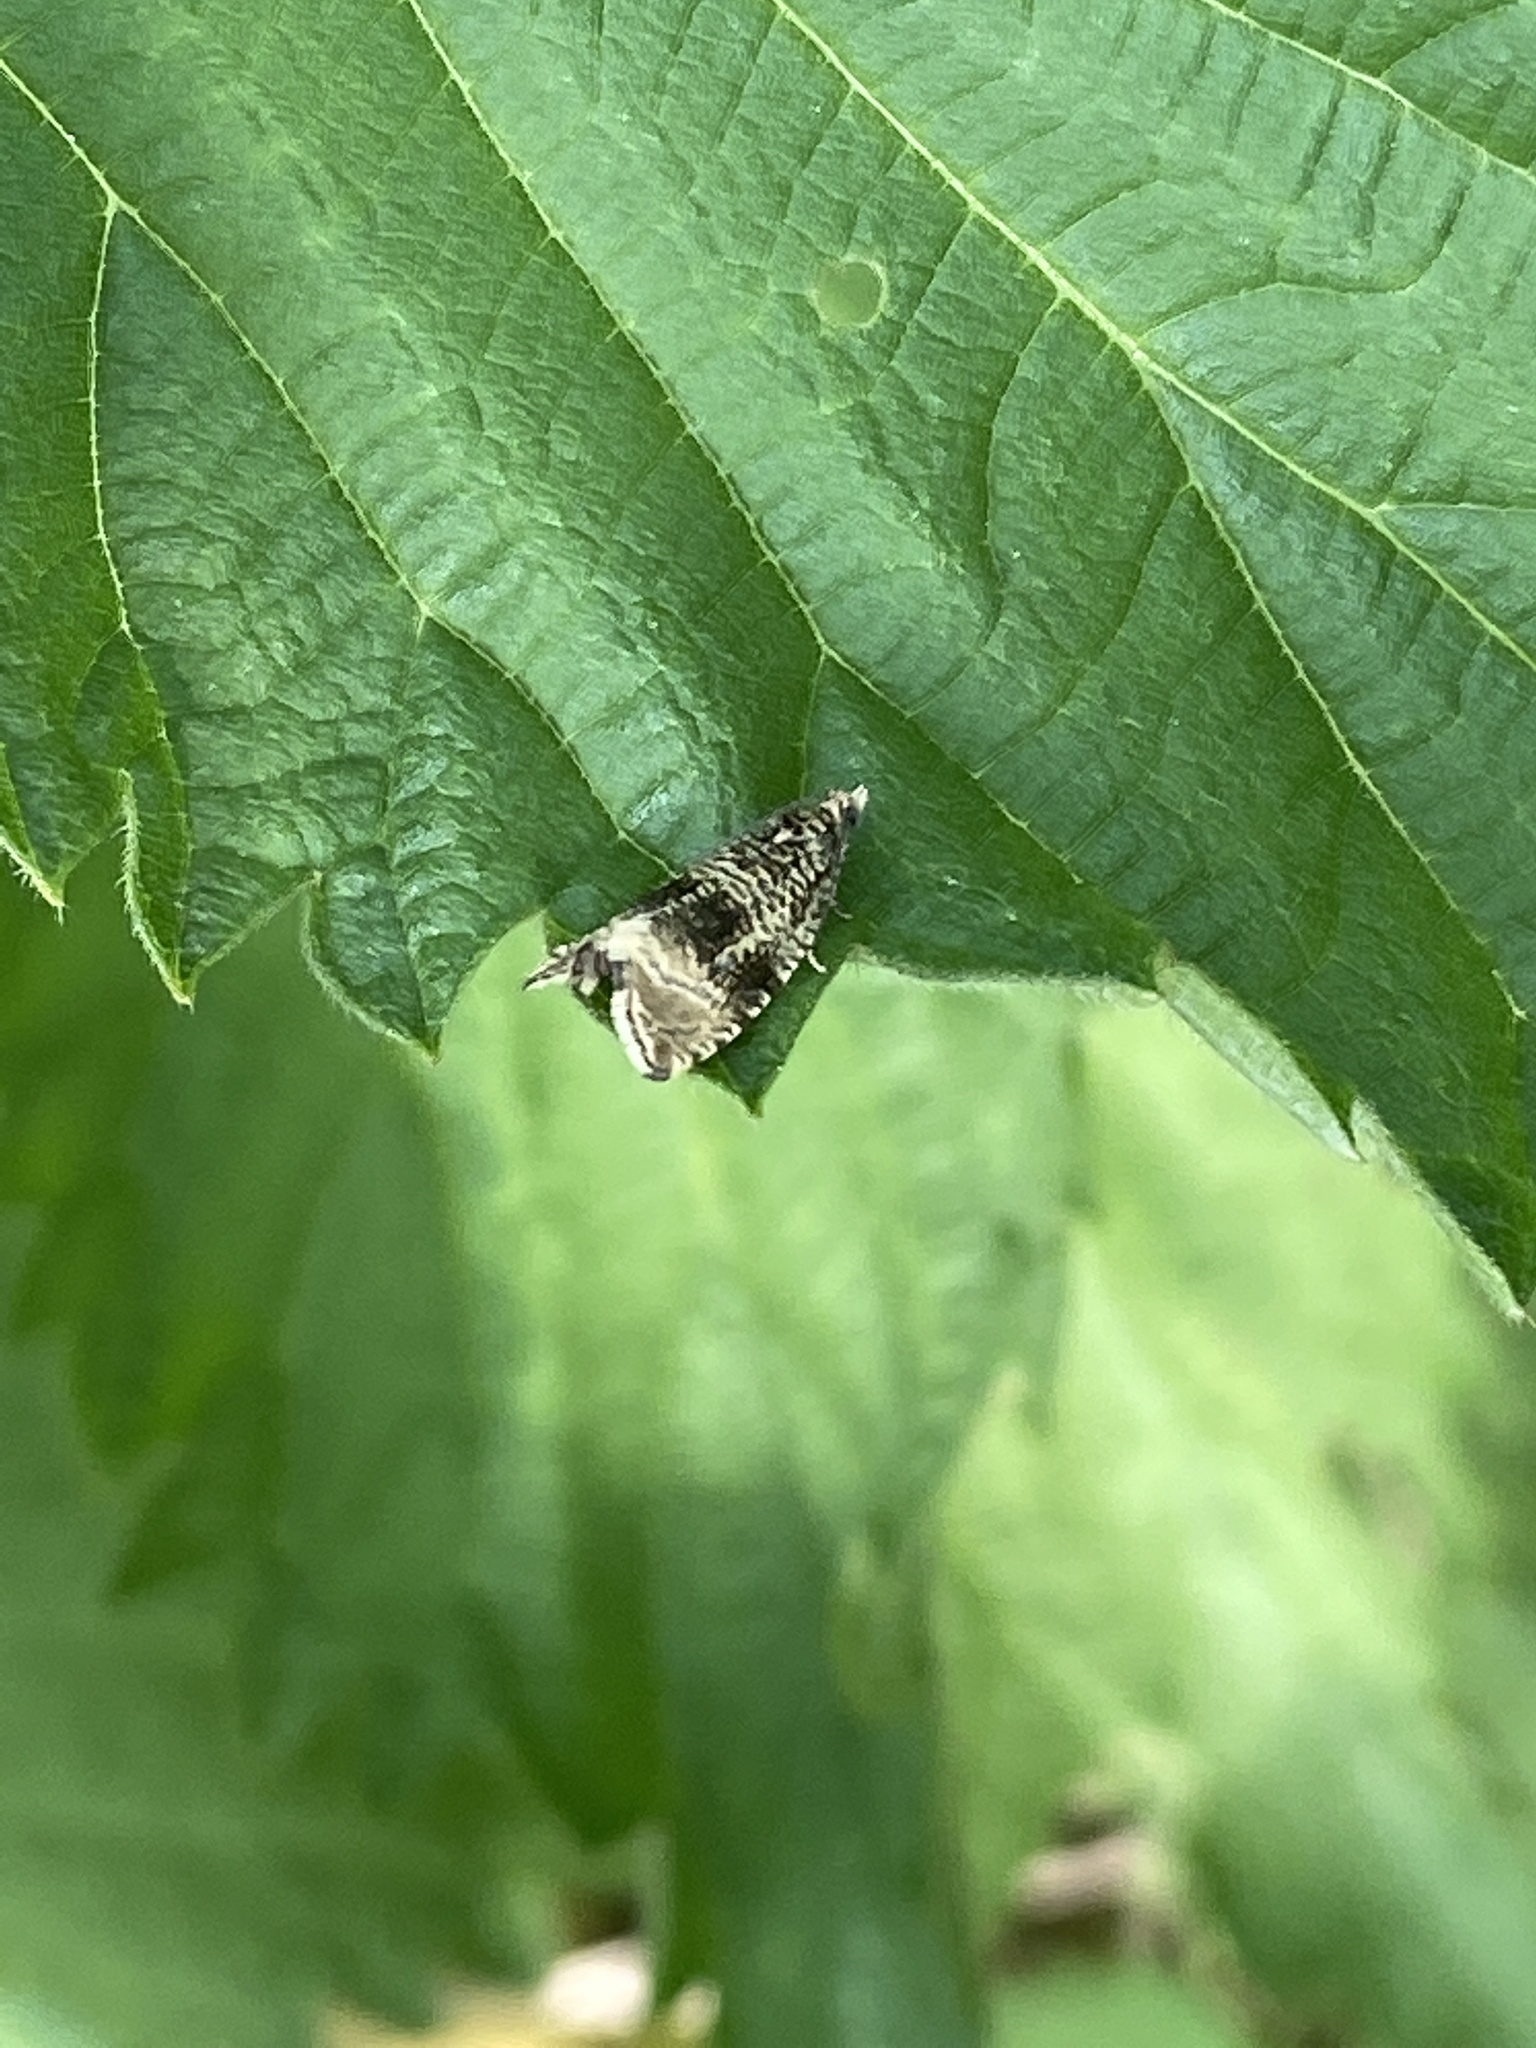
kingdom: Animalia
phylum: Arthropoda
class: Insecta
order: Lepidoptera
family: Tortricidae
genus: Syricoris
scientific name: Syricoris lacunana
